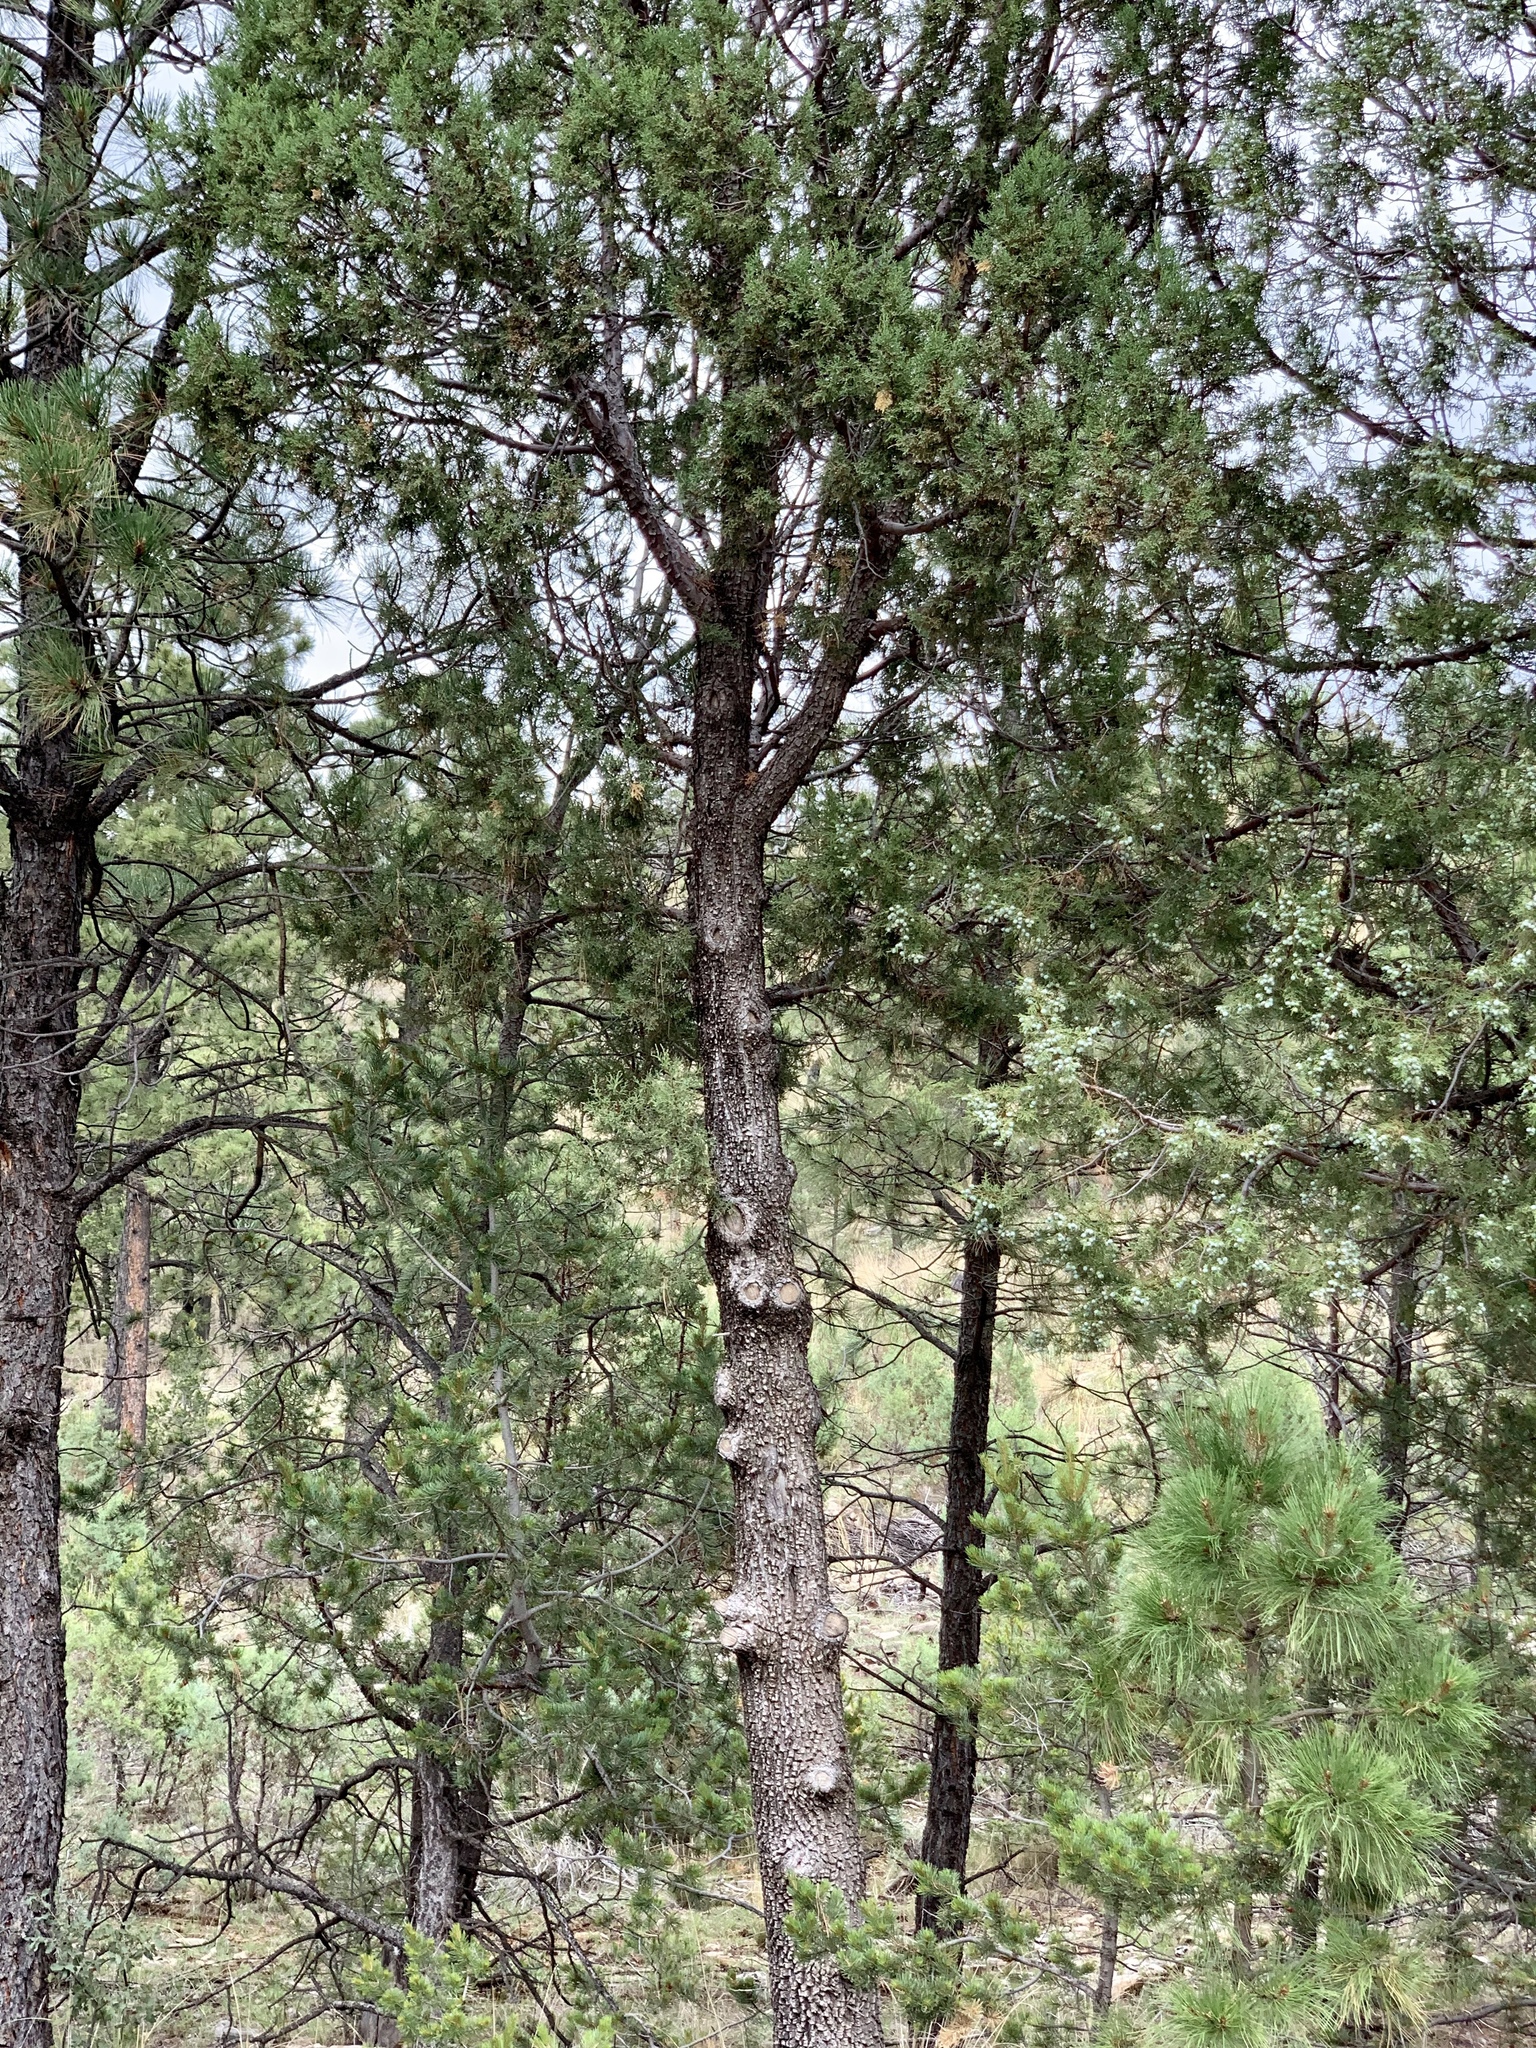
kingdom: Plantae
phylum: Tracheophyta
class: Pinopsida
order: Pinales
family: Cupressaceae
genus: Juniperus
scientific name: Juniperus deppeana
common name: Alligator juniper
